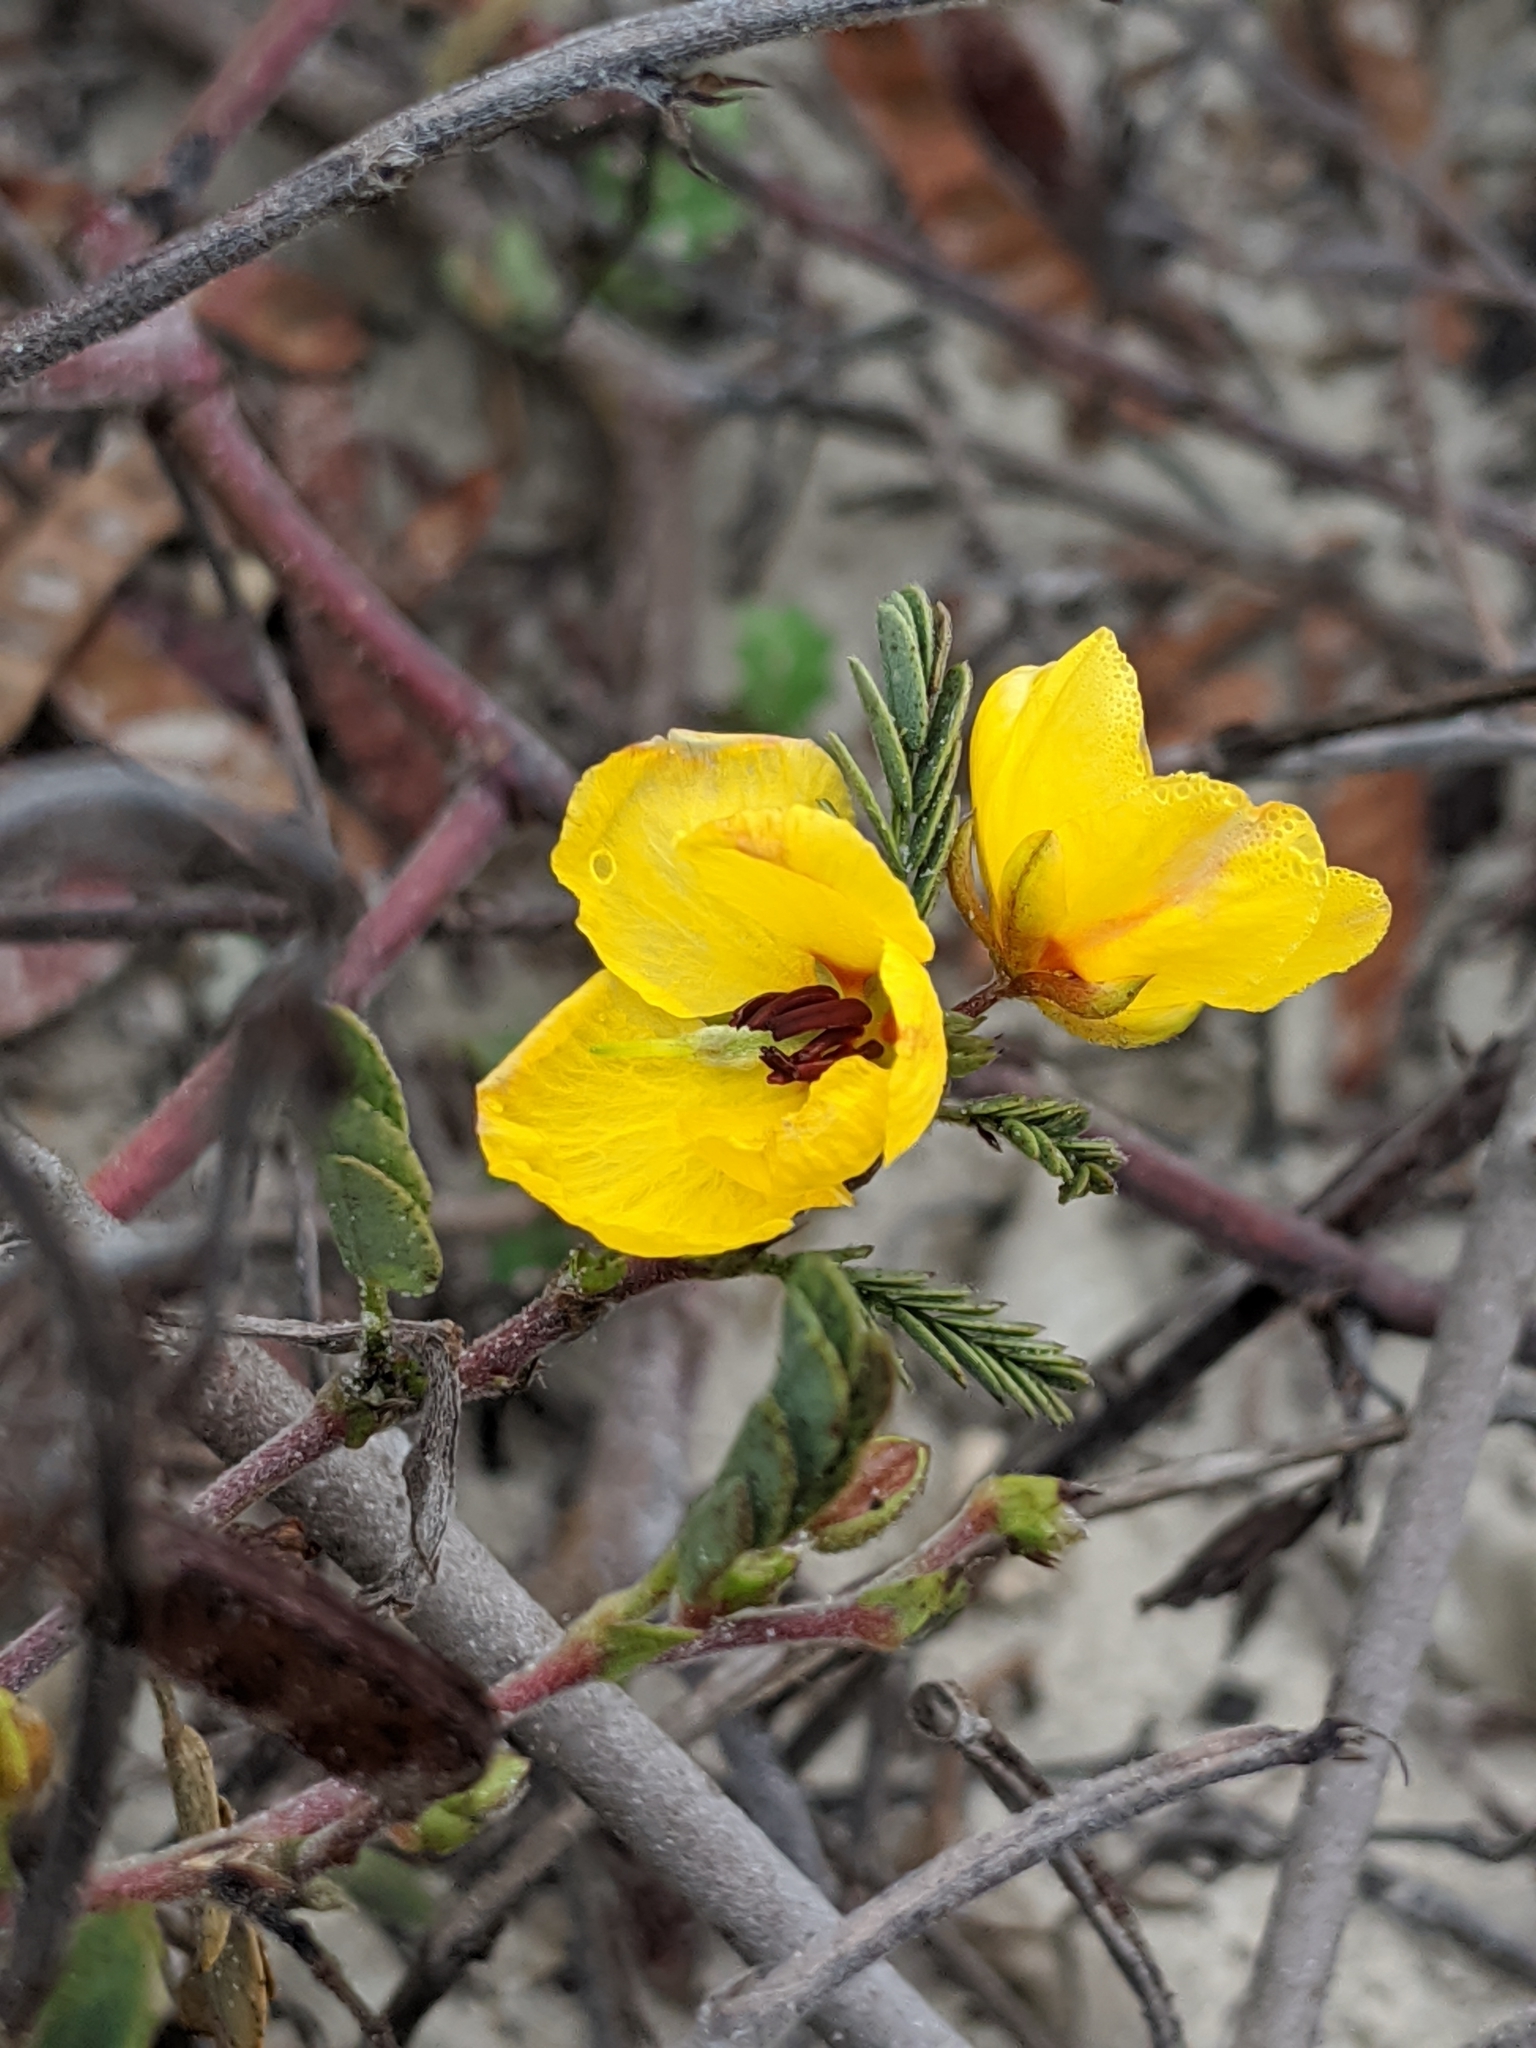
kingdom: Plantae
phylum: Tracheophyta
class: Magnoliopsida
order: Fabales
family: Fabaceae
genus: Chamaecrista
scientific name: Chamaecrista fasciculata
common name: Golden cassia
